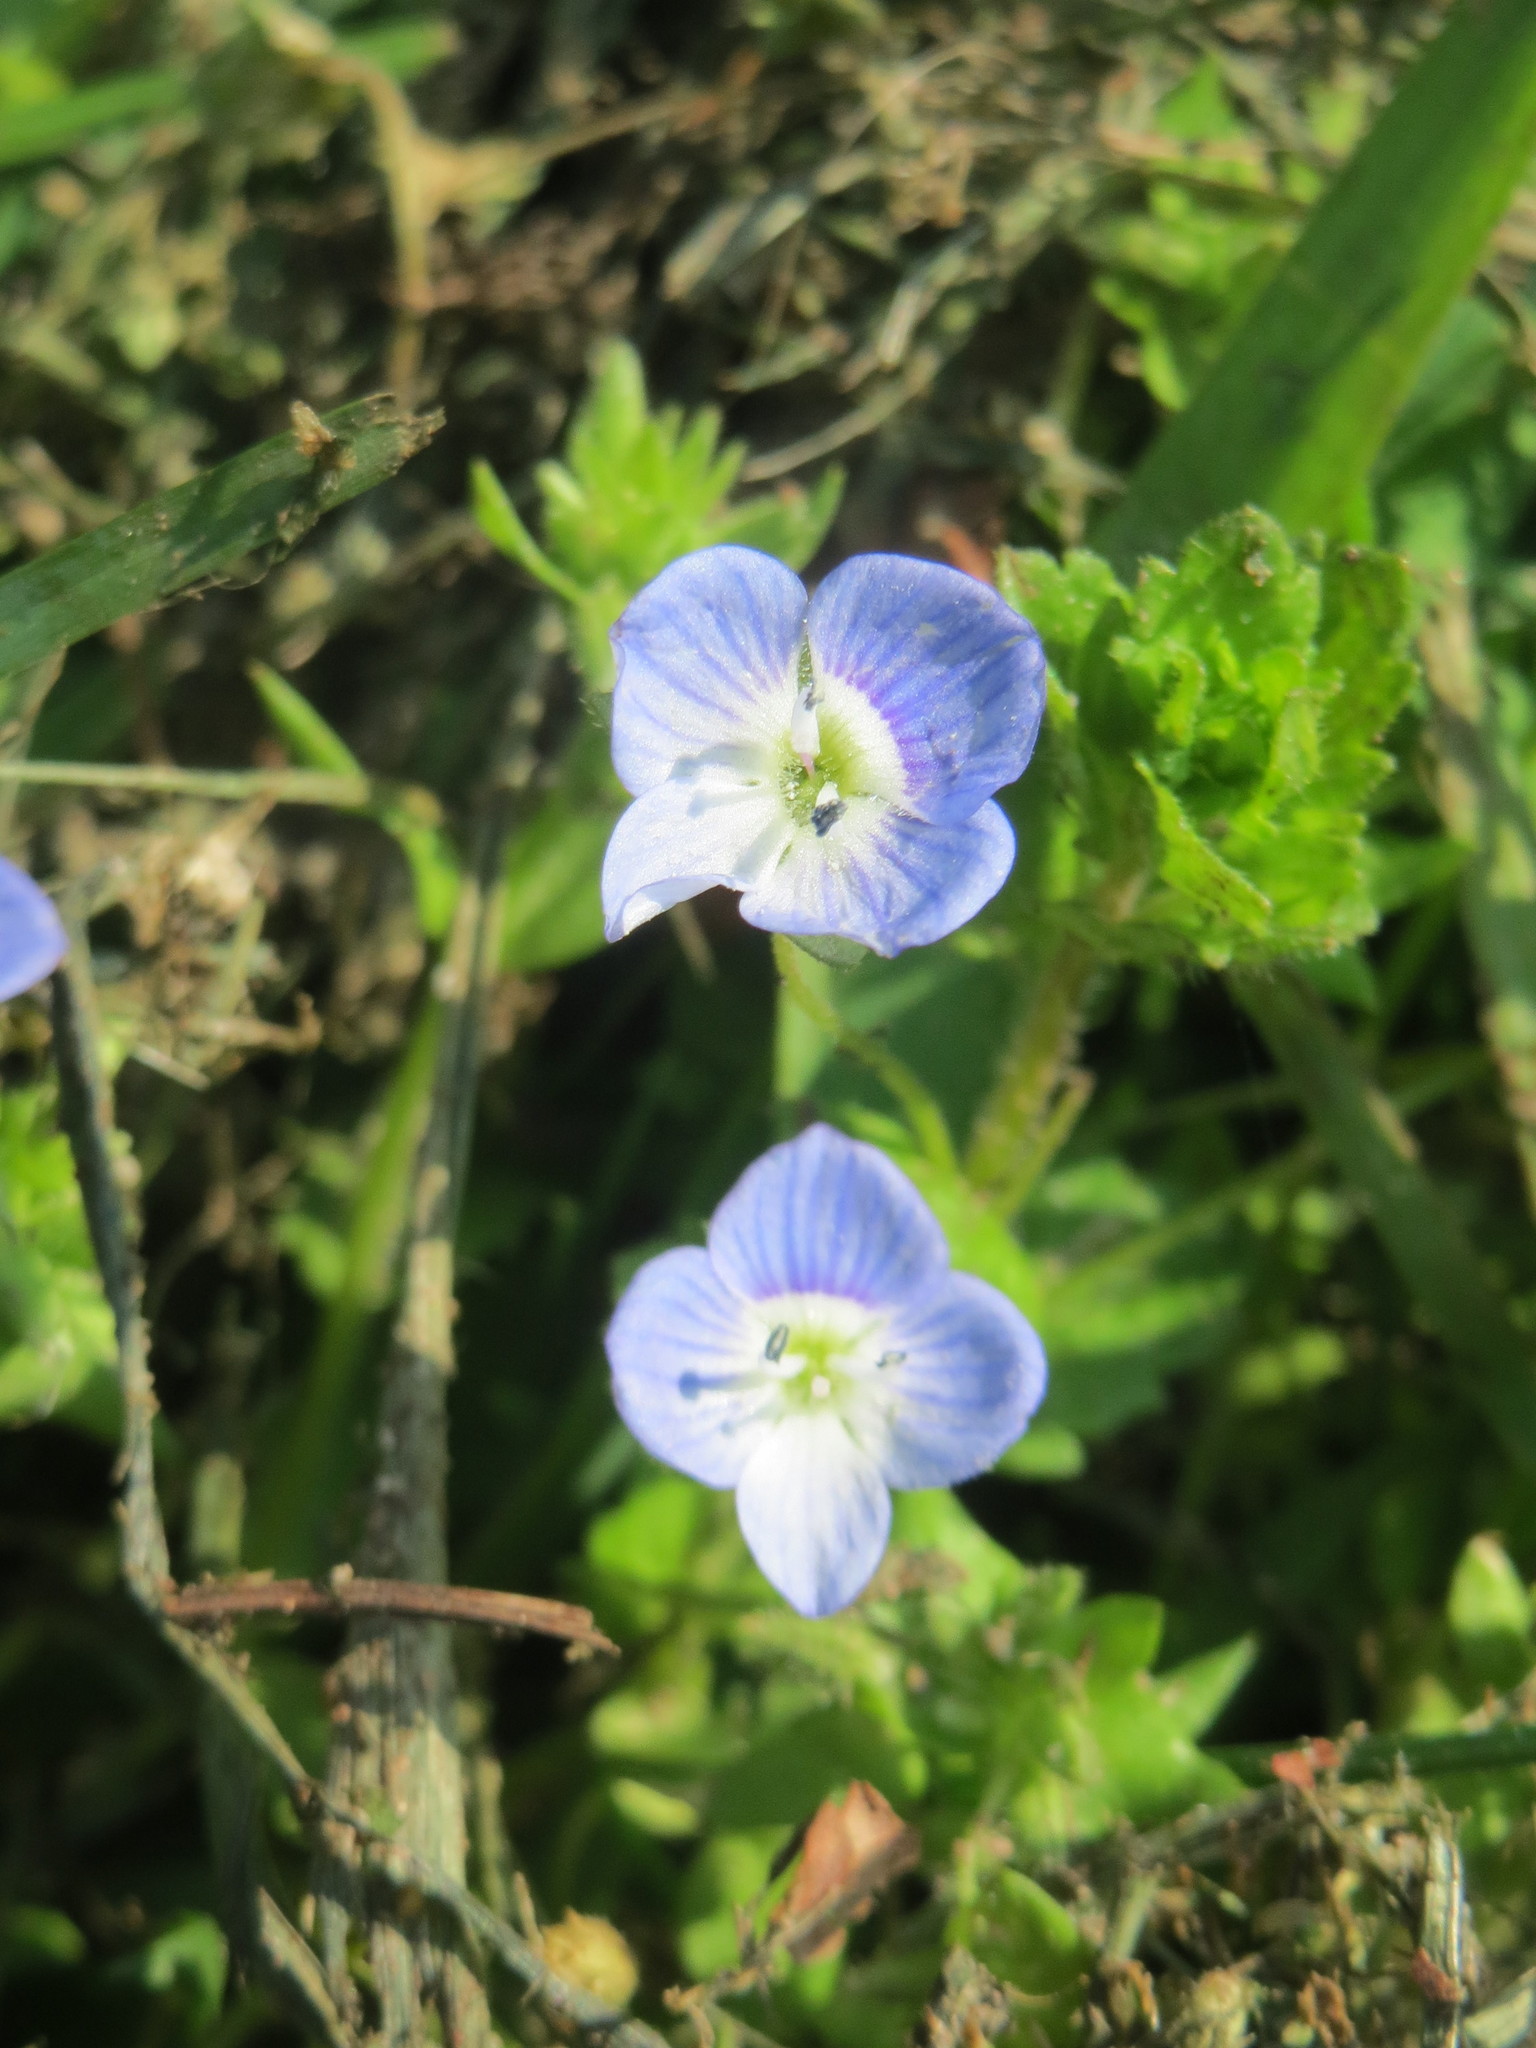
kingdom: Plantae
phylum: Tracheophyta
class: Magnoliopsida
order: Lamiales
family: Plantaginaceae
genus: Veronica
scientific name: Veronica persica
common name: Common field-speedwell
